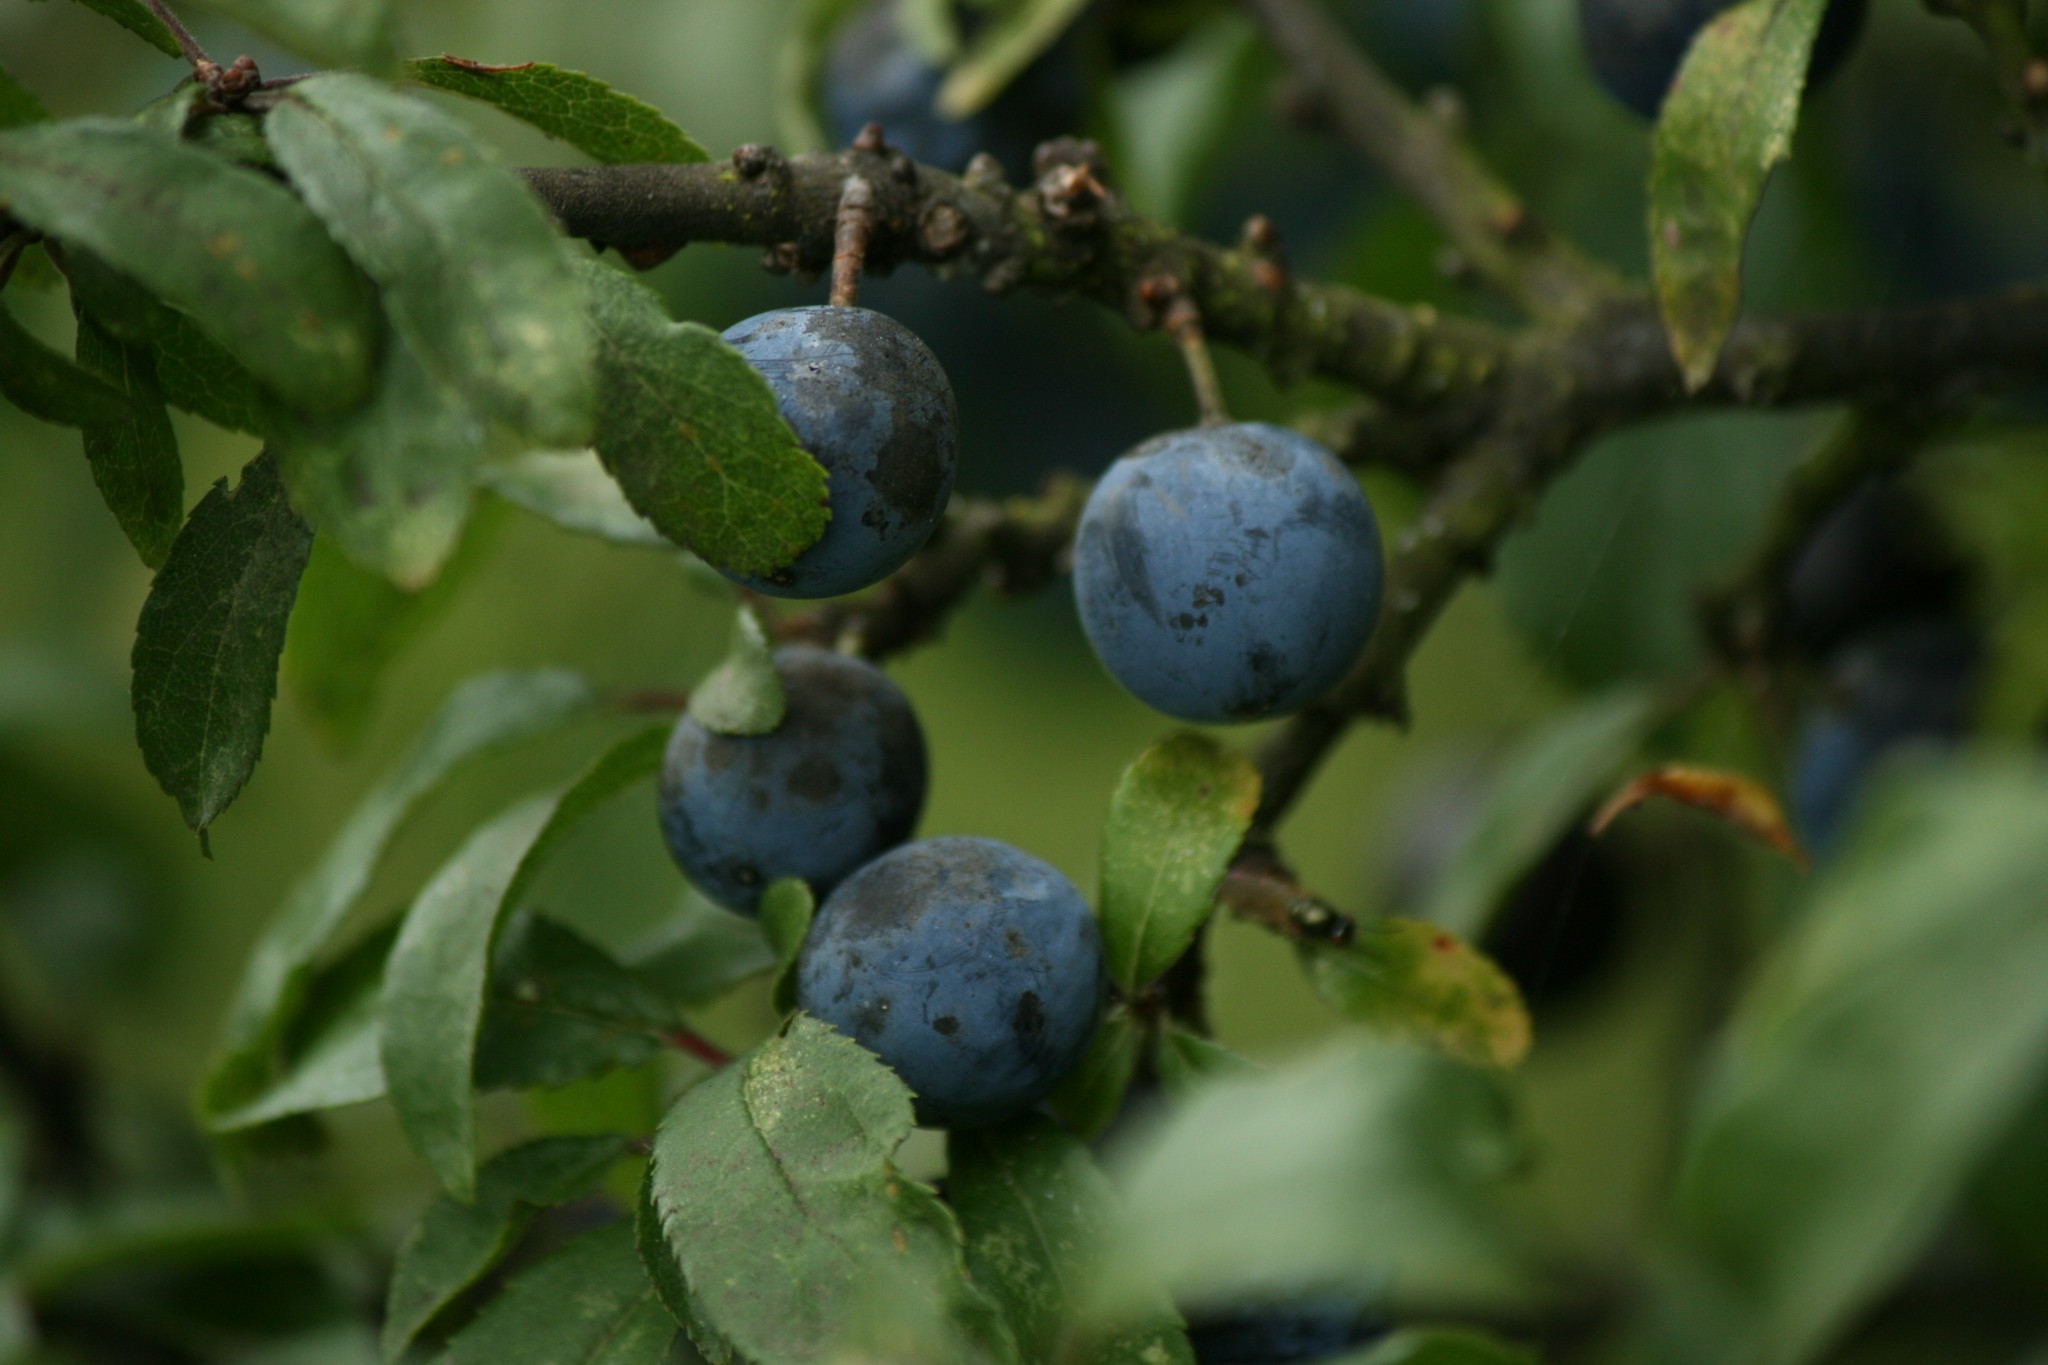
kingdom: Plantae
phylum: Tracheophyta
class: Magnoliopsida
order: Rosales
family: Rosaceae
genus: Prunus
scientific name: Prunus spinosa
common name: Blackthorn
